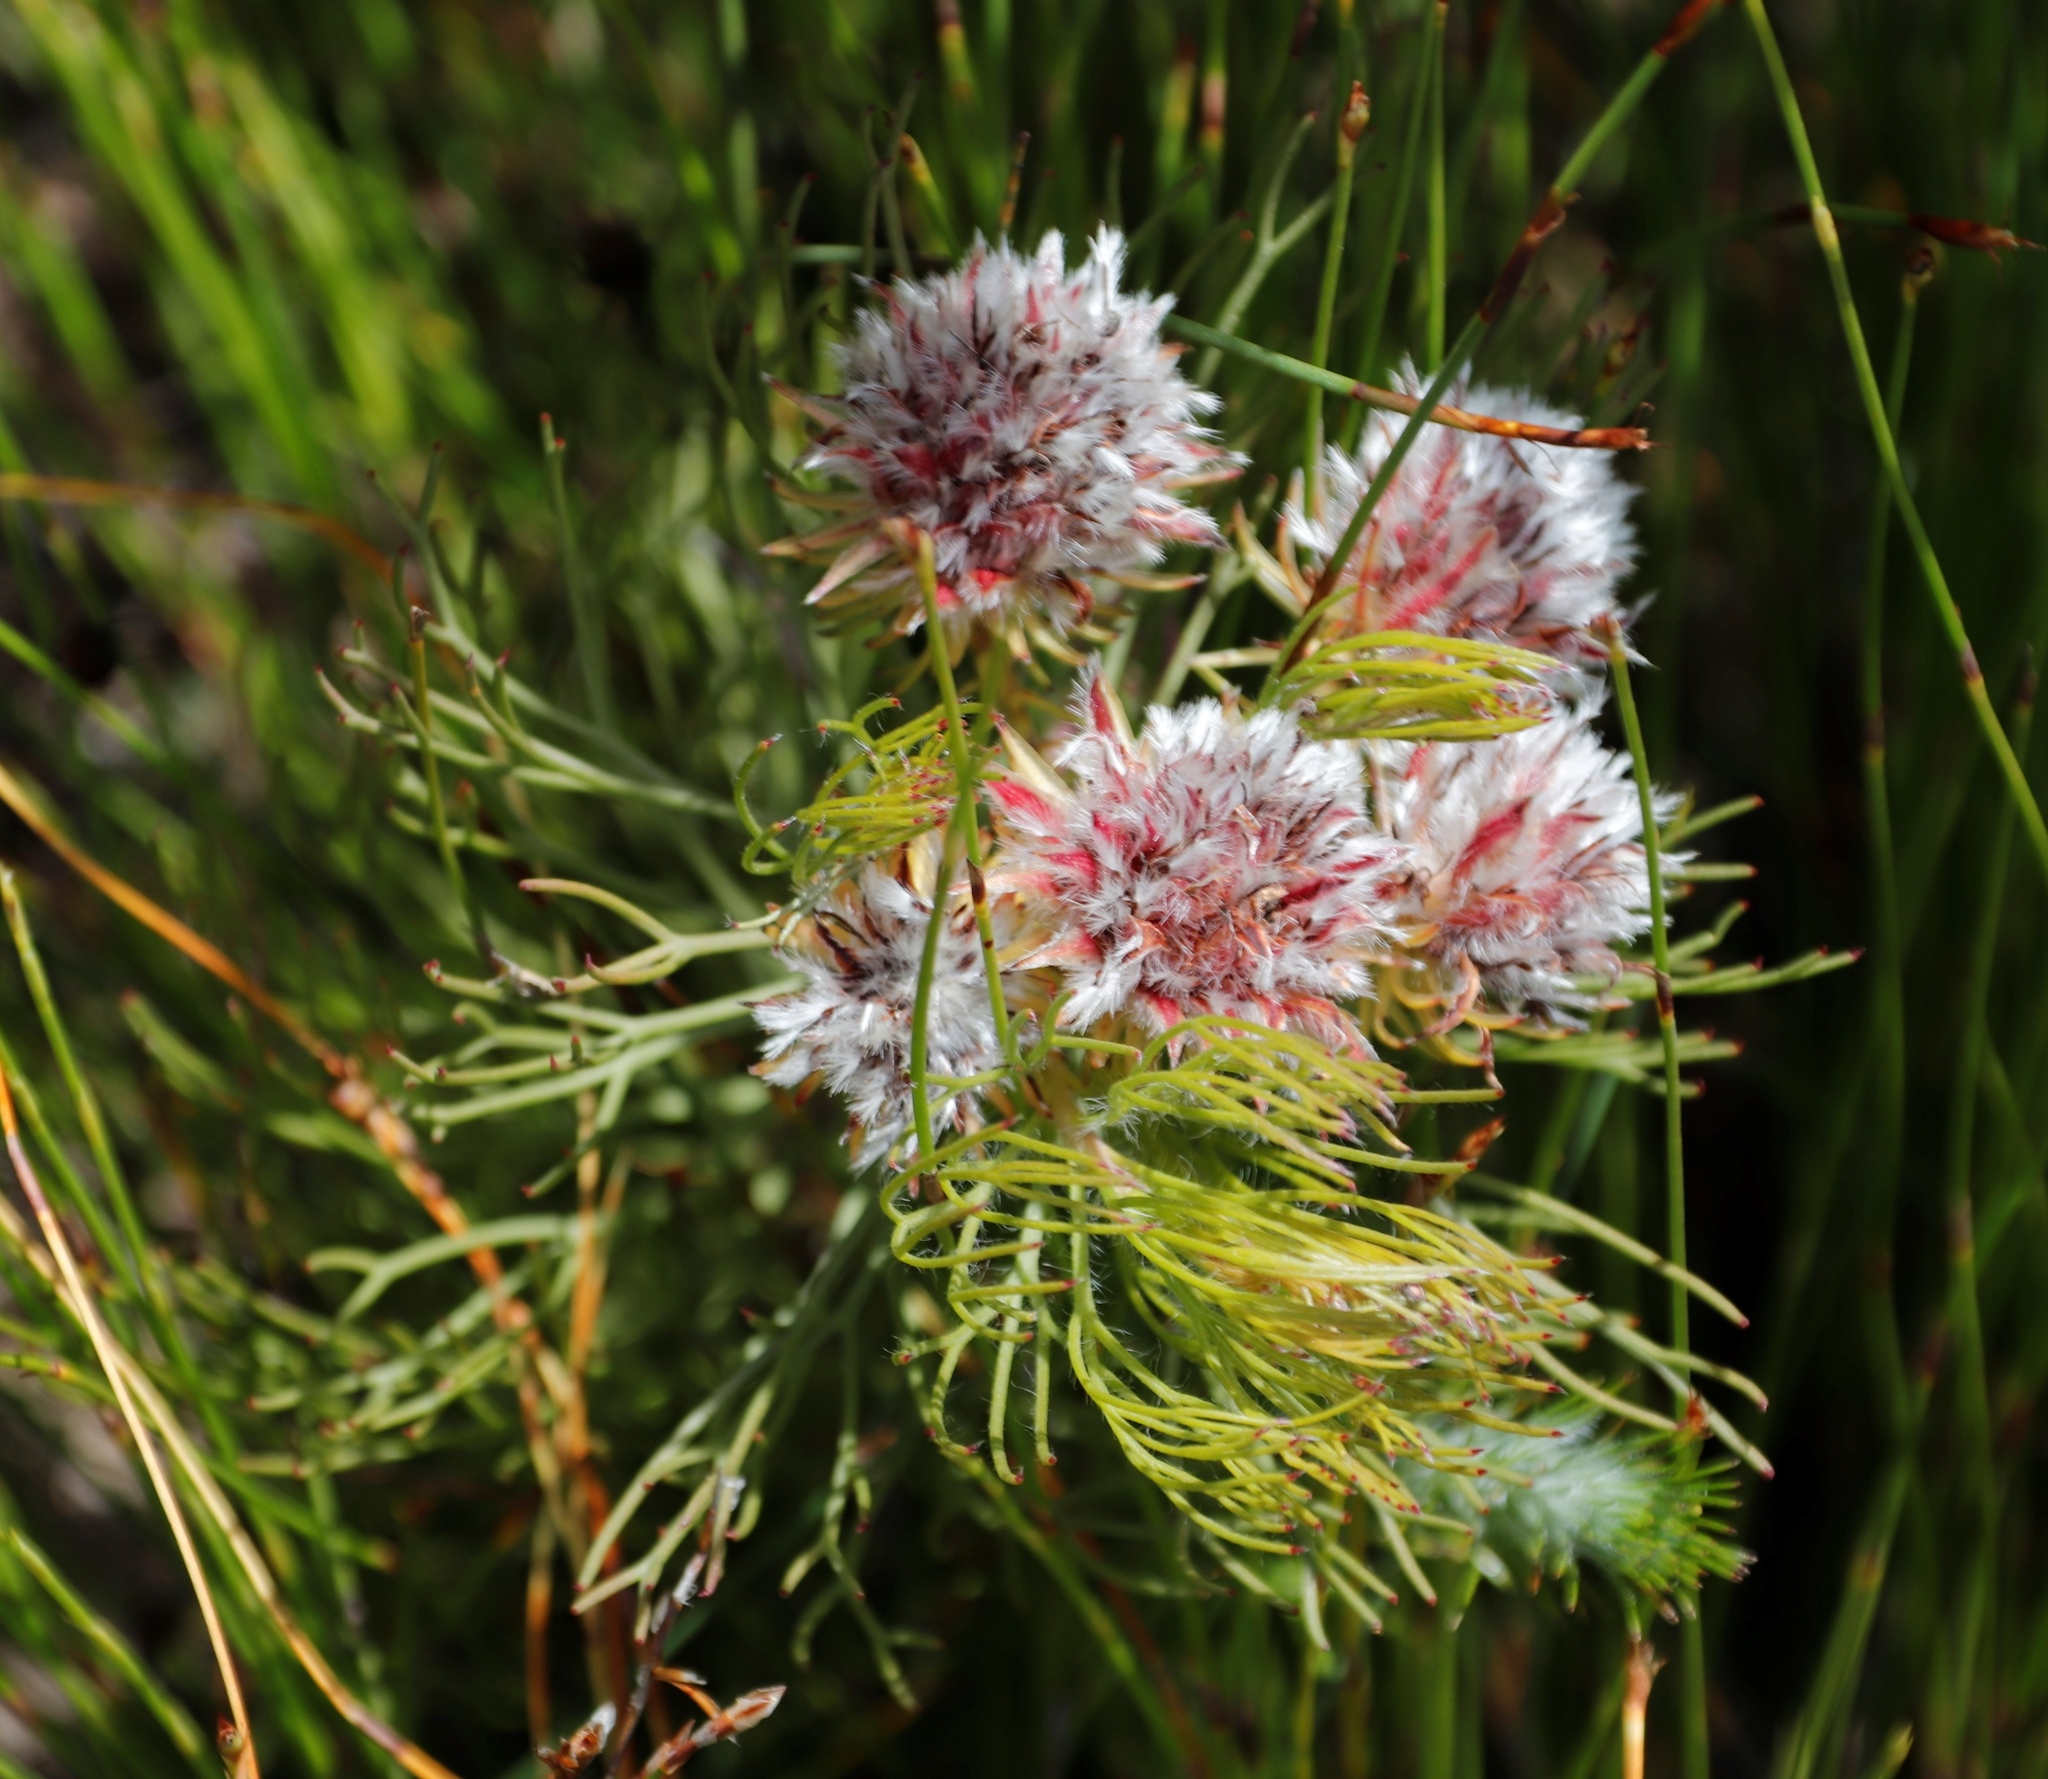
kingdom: Plantae
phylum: Tracheophyta
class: Magnoliopsida
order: Proteales
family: Proteaceae
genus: Serruria
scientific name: Serruria phylicoides
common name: Bearded spiderhead
